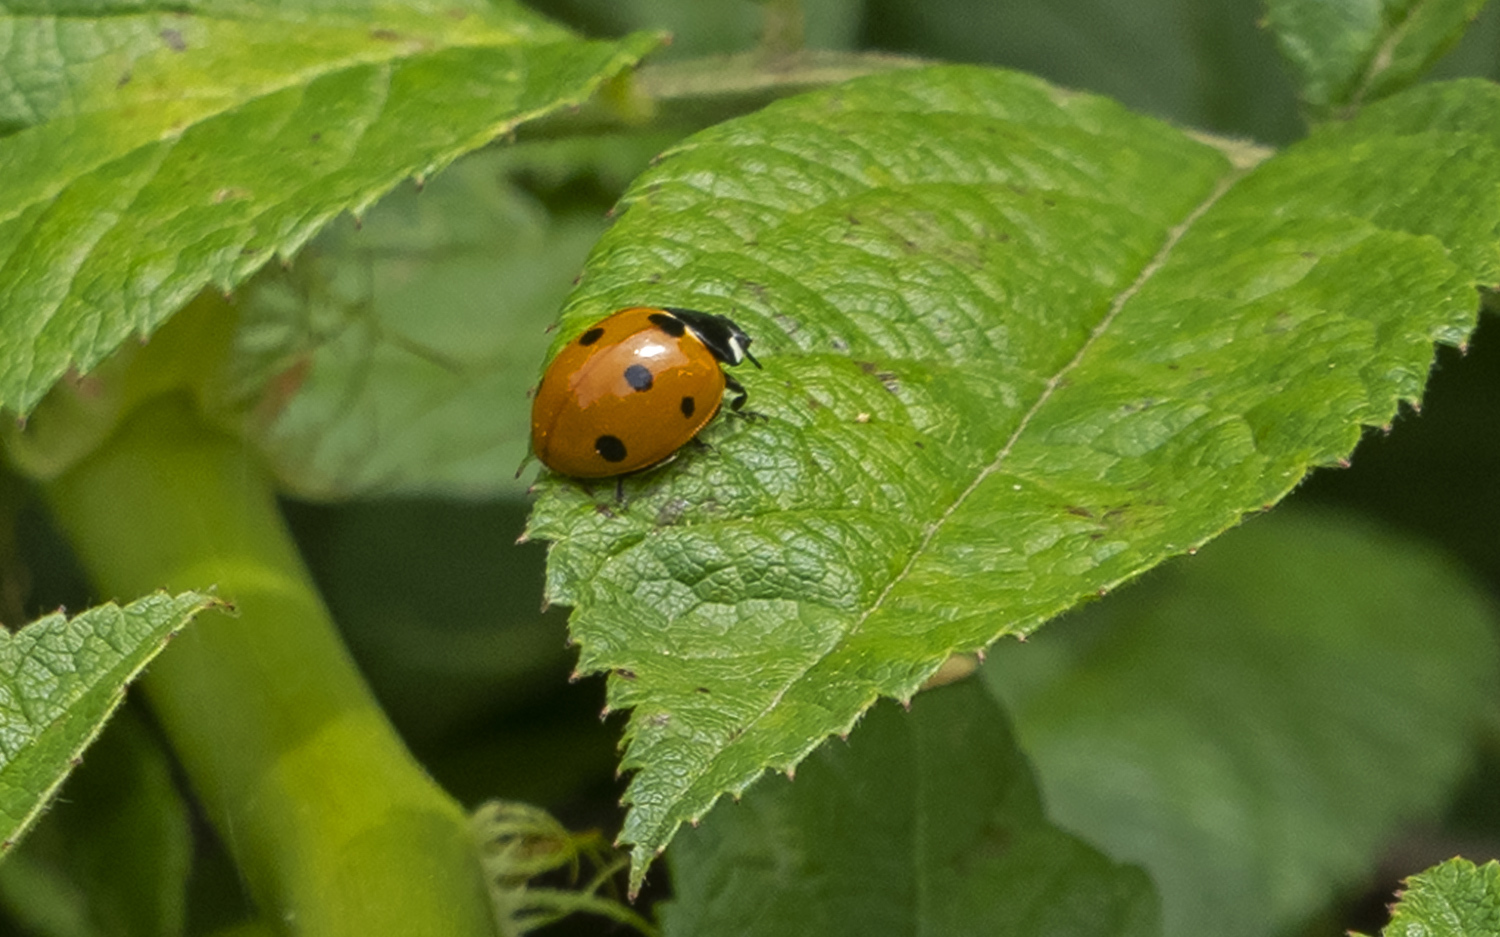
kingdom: Animalia
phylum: Arthropoda
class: Insecta
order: Coleoptera
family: Coccinellidae
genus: Coccinella
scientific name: Coccinella septempunctata
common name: Sevenspotted lady beetle
